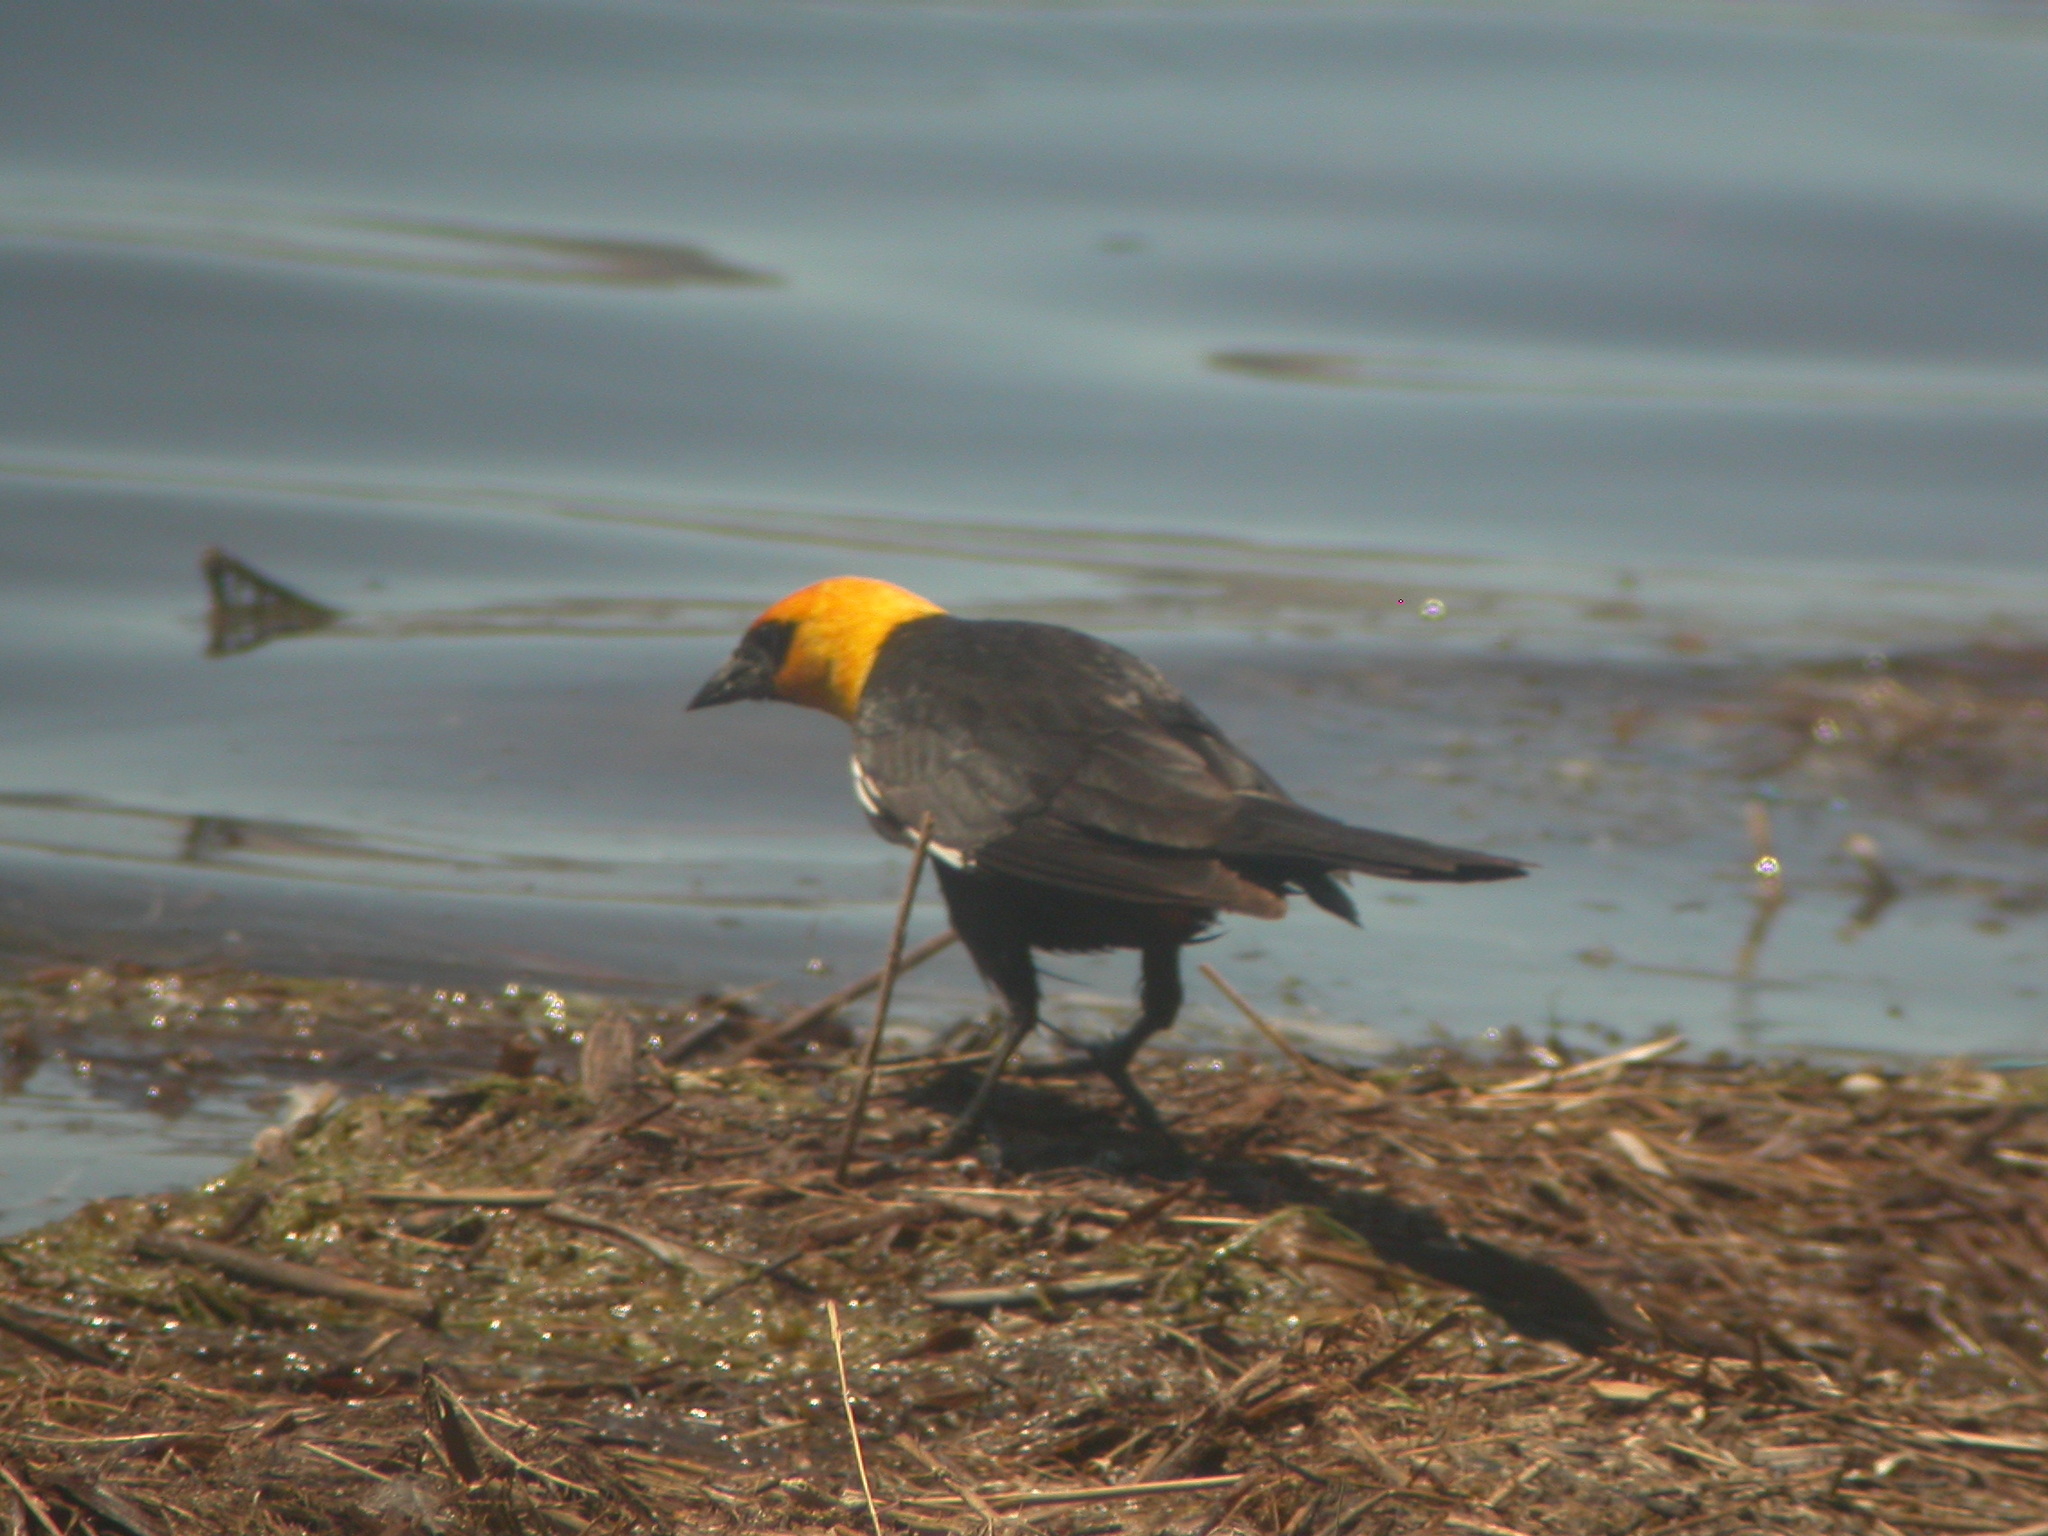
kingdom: Animalia
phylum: Chordata
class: Aves
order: Passeriformes
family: Icteridae
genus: Xanthocephalus
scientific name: Xanthocephalus xanthocephalus
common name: Yellow-headed blackbird
